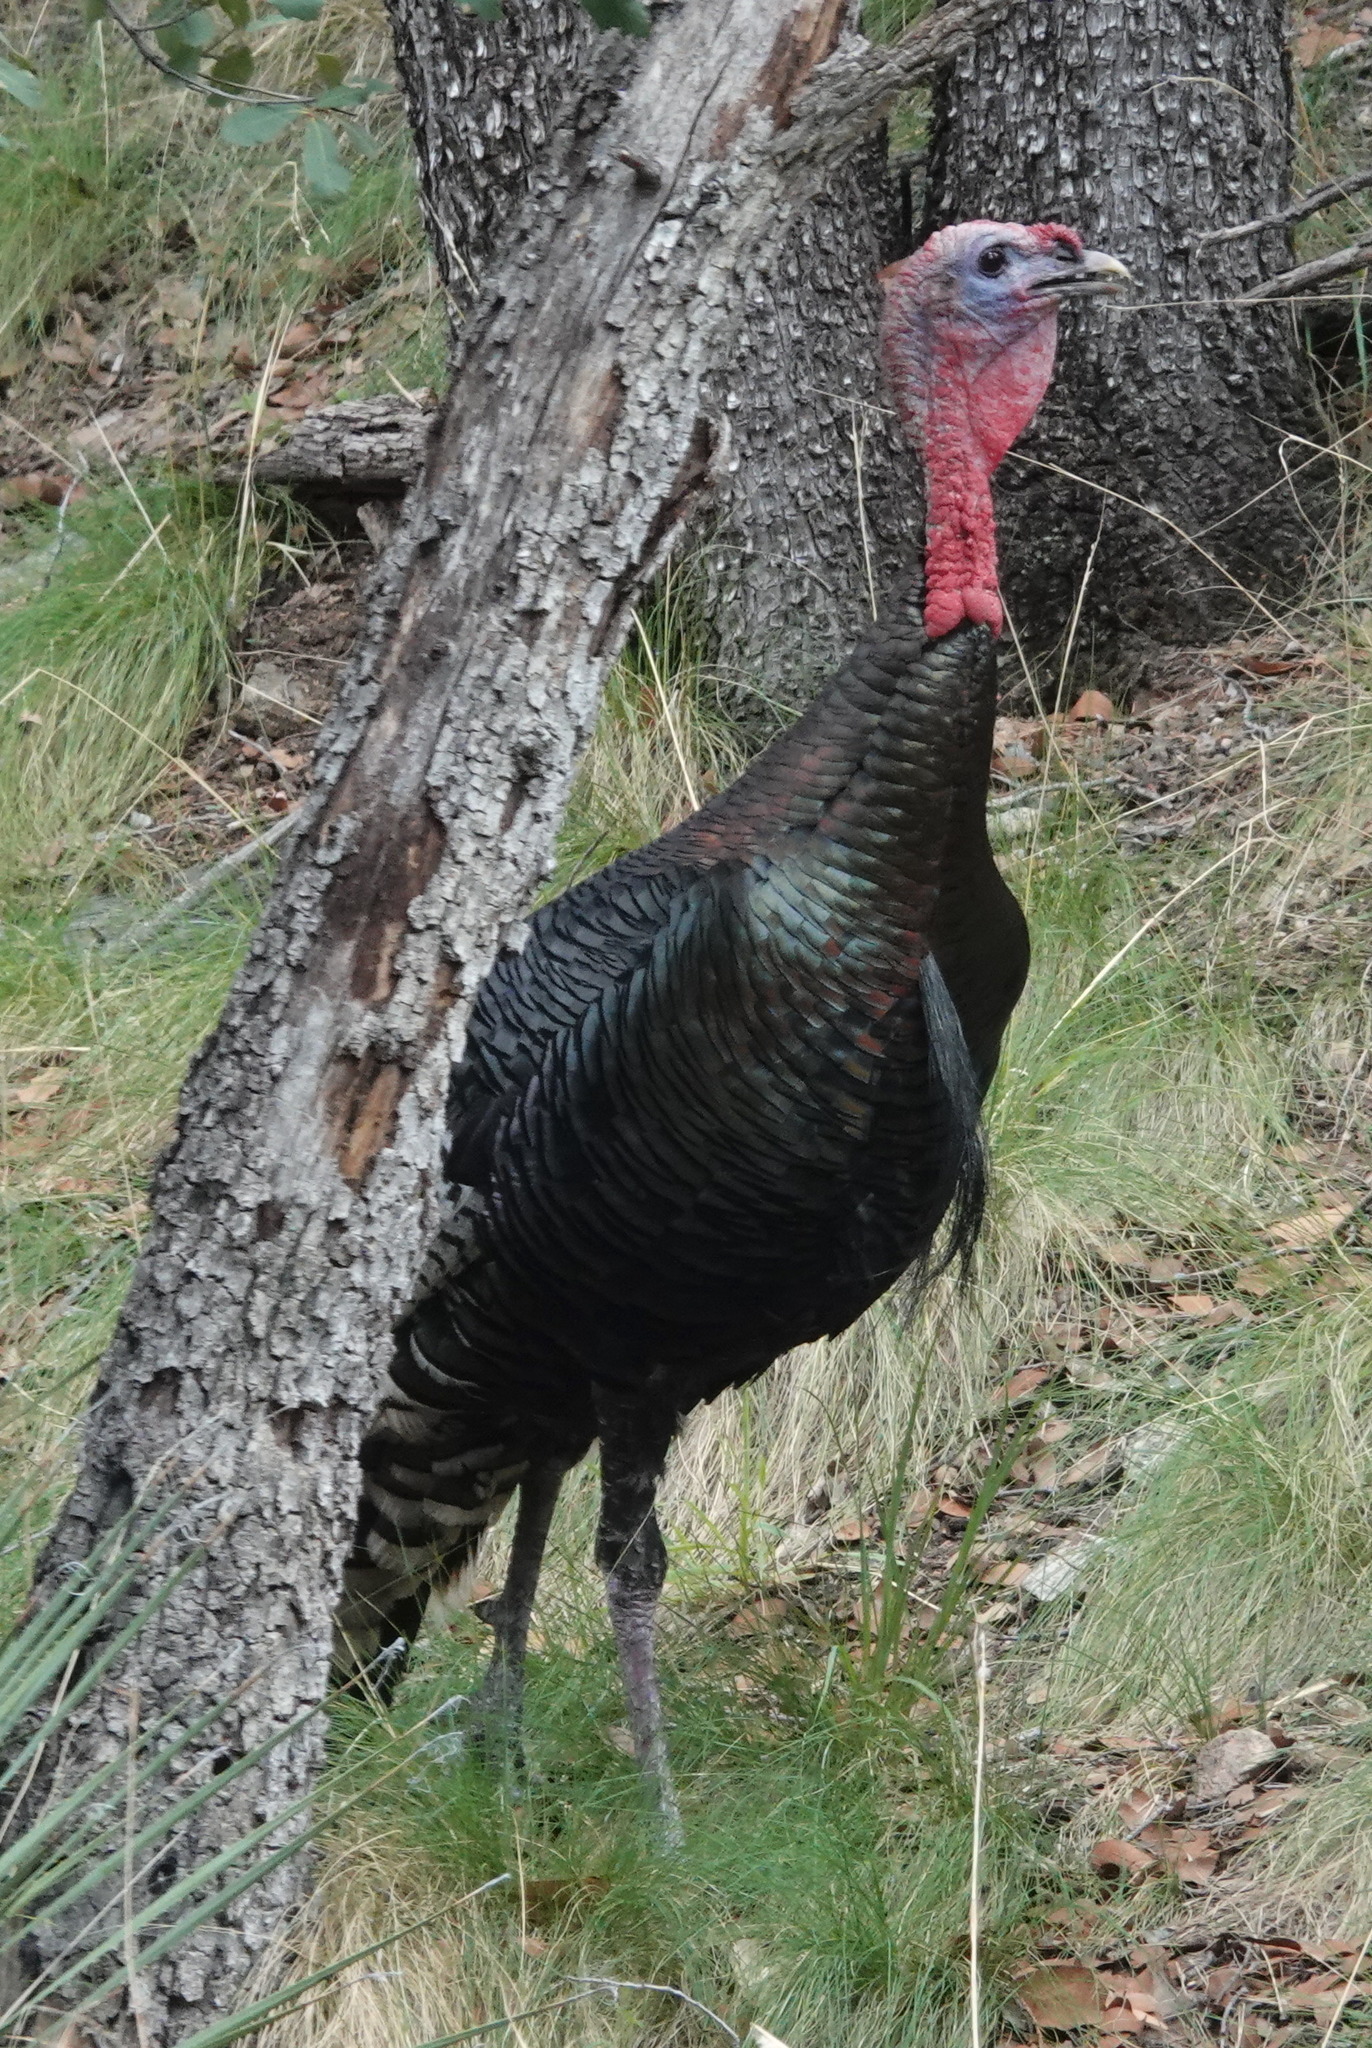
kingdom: Animalia
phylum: Chordata
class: Aves
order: Galliformes
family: Phasianidae
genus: Meleagris
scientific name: Meleagris gallopavo
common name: Wild turkey
